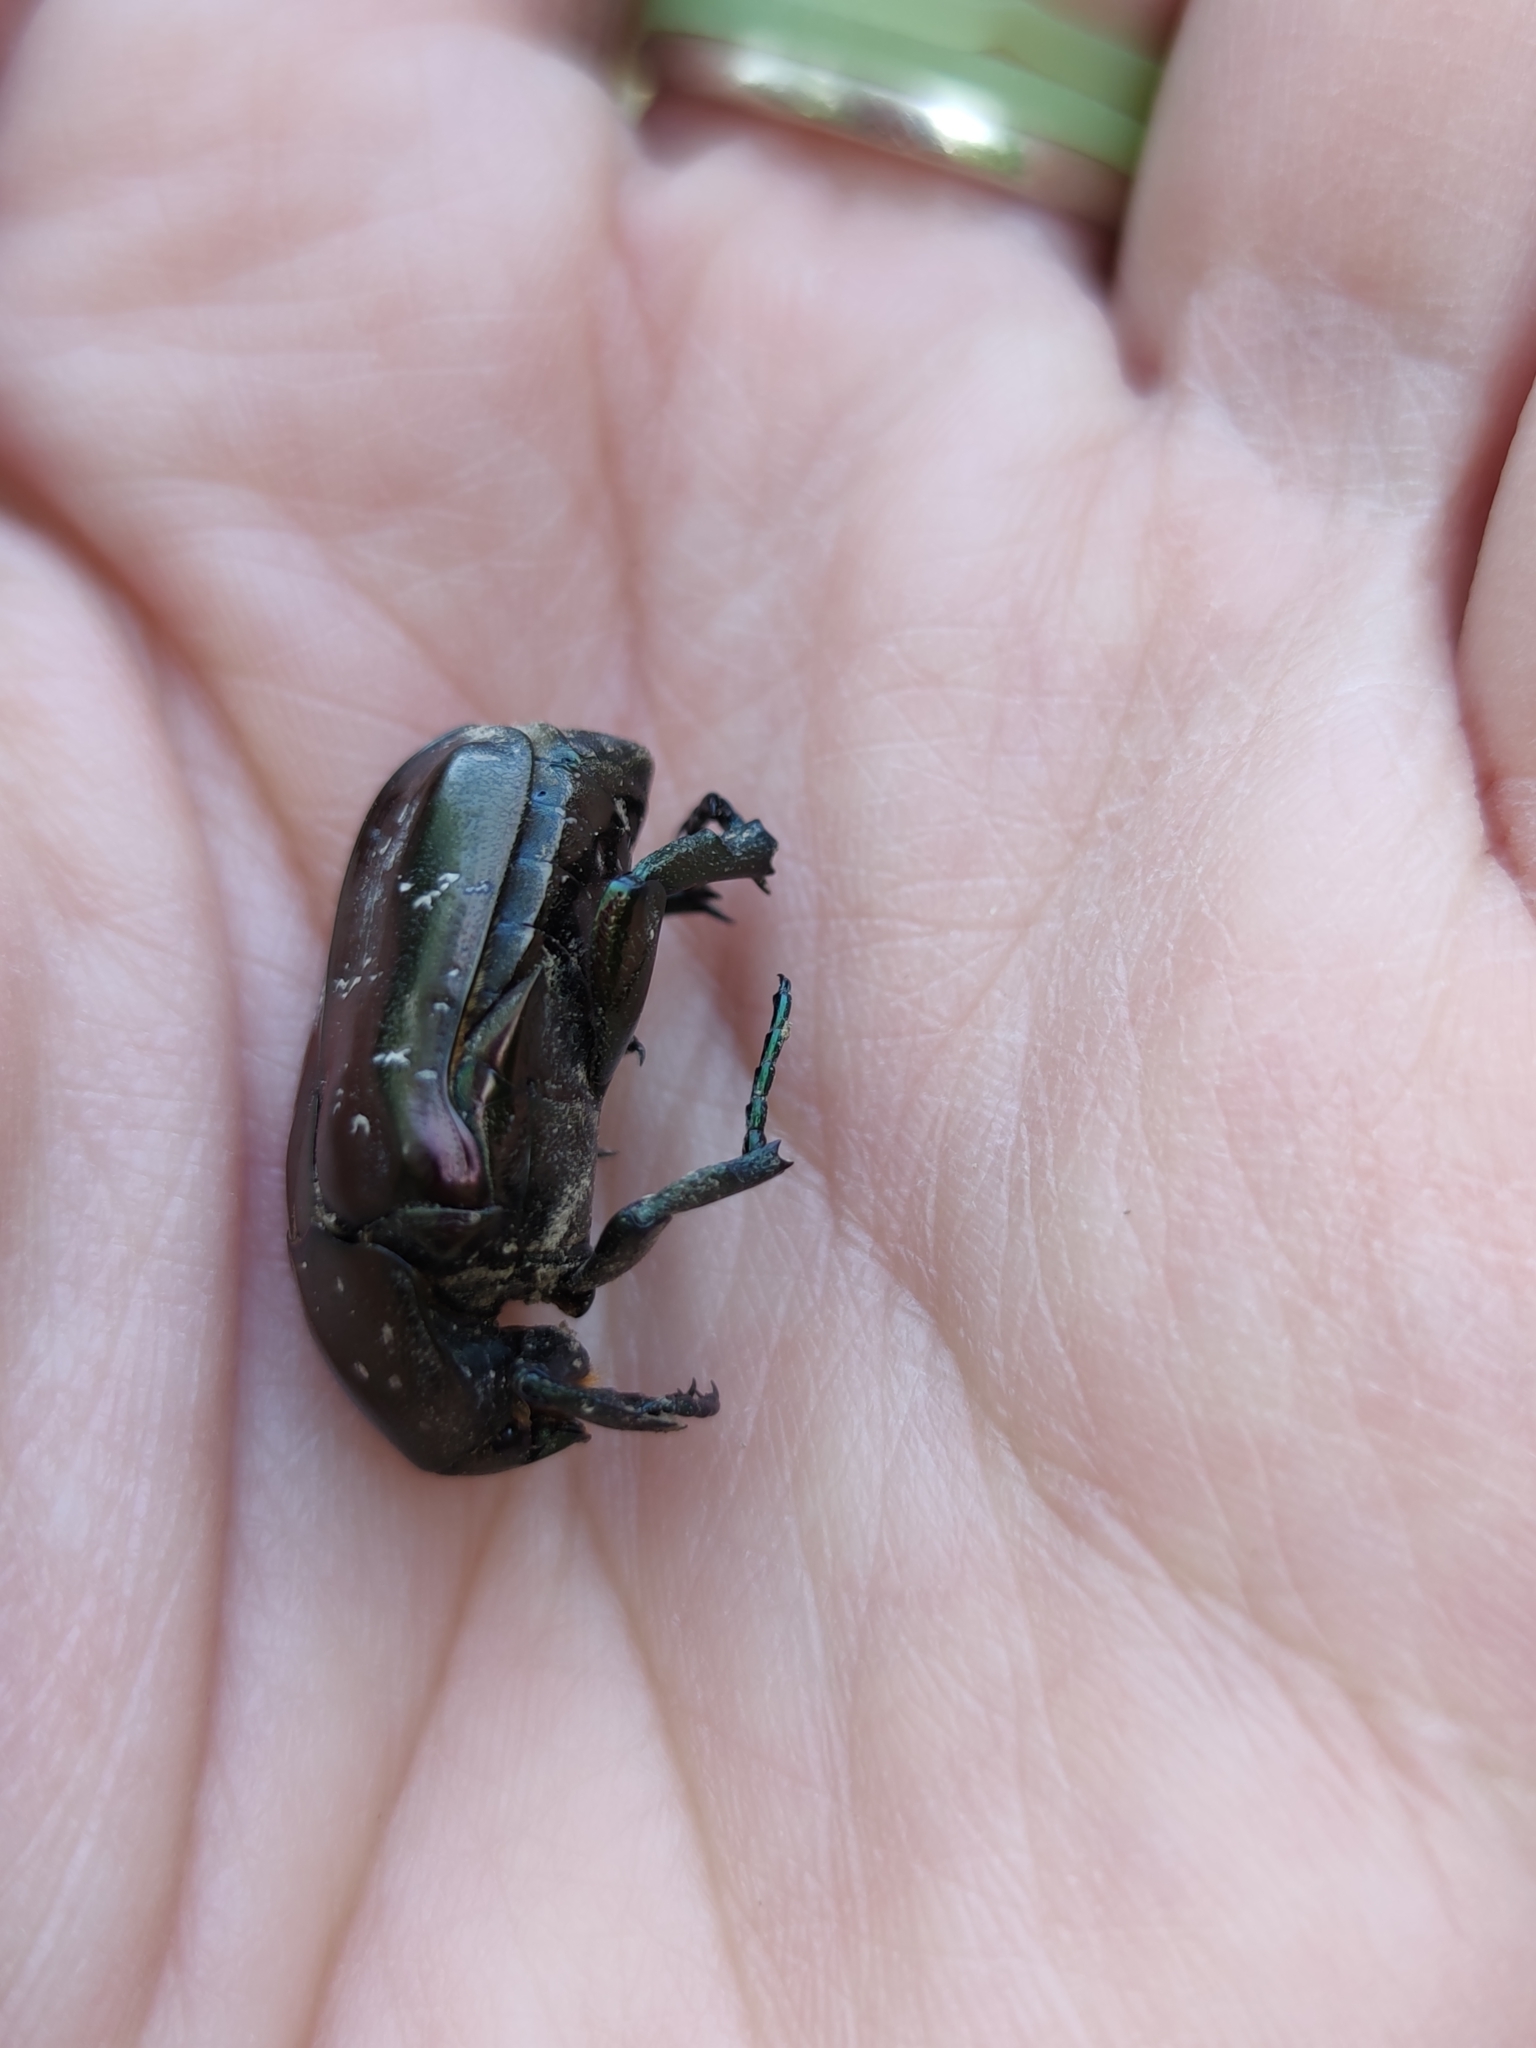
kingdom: Animalia
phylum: Arthropoda
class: Insecta
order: Coleoptera
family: Scarabaeidae
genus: Protaetia
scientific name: Protaetia marmorata
